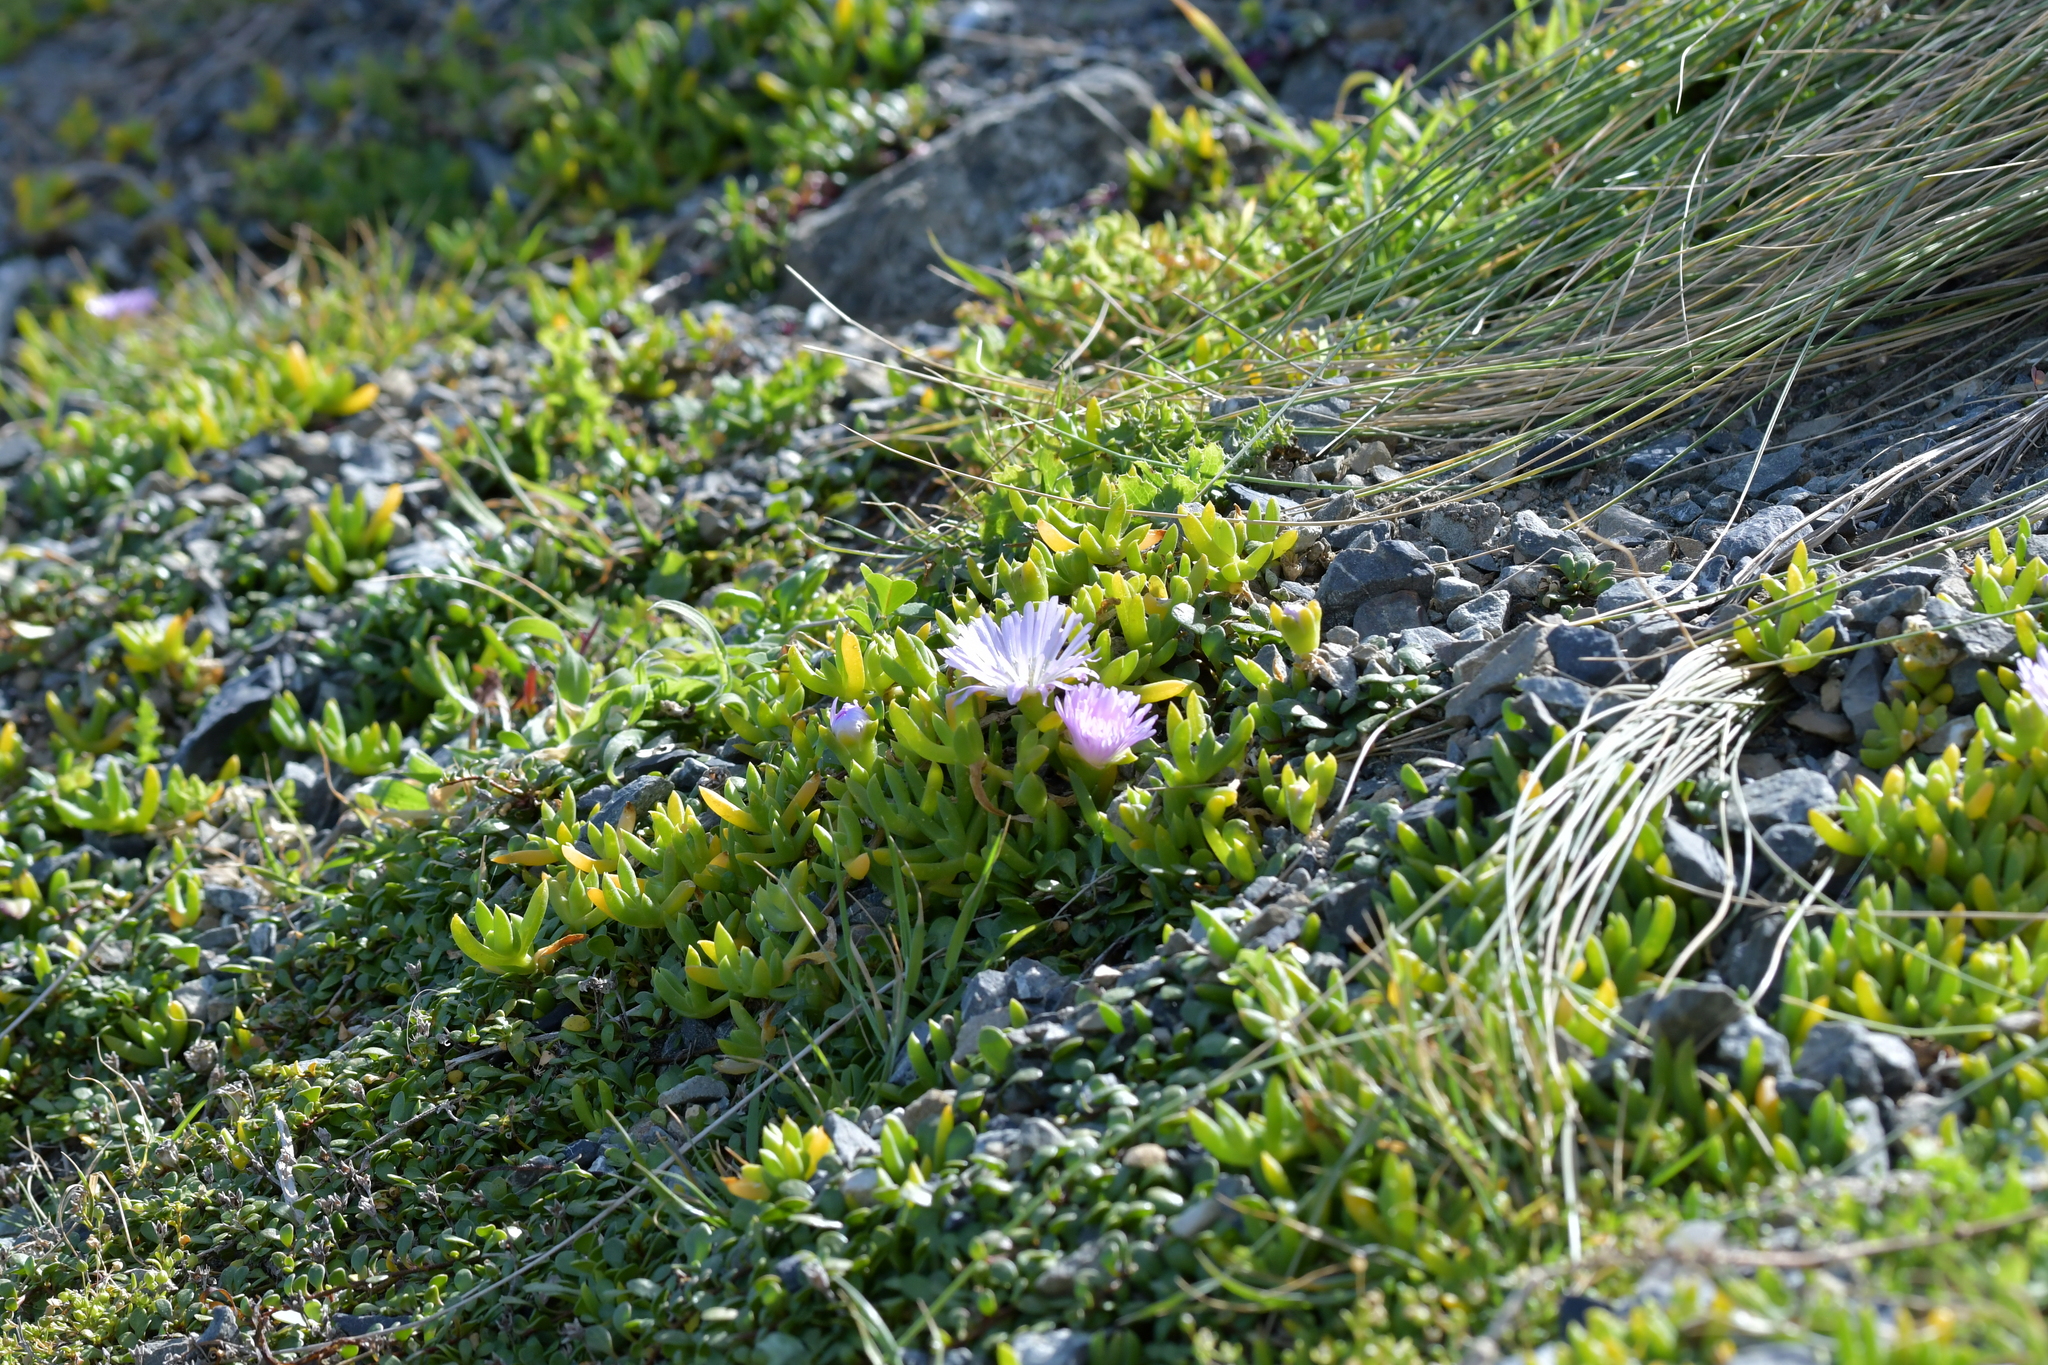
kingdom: Plantae
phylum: Tracheophyta
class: Magnoliopsida
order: Caryophyllales
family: Aizoaceae
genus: Disphyma
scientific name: Disphyma australe
